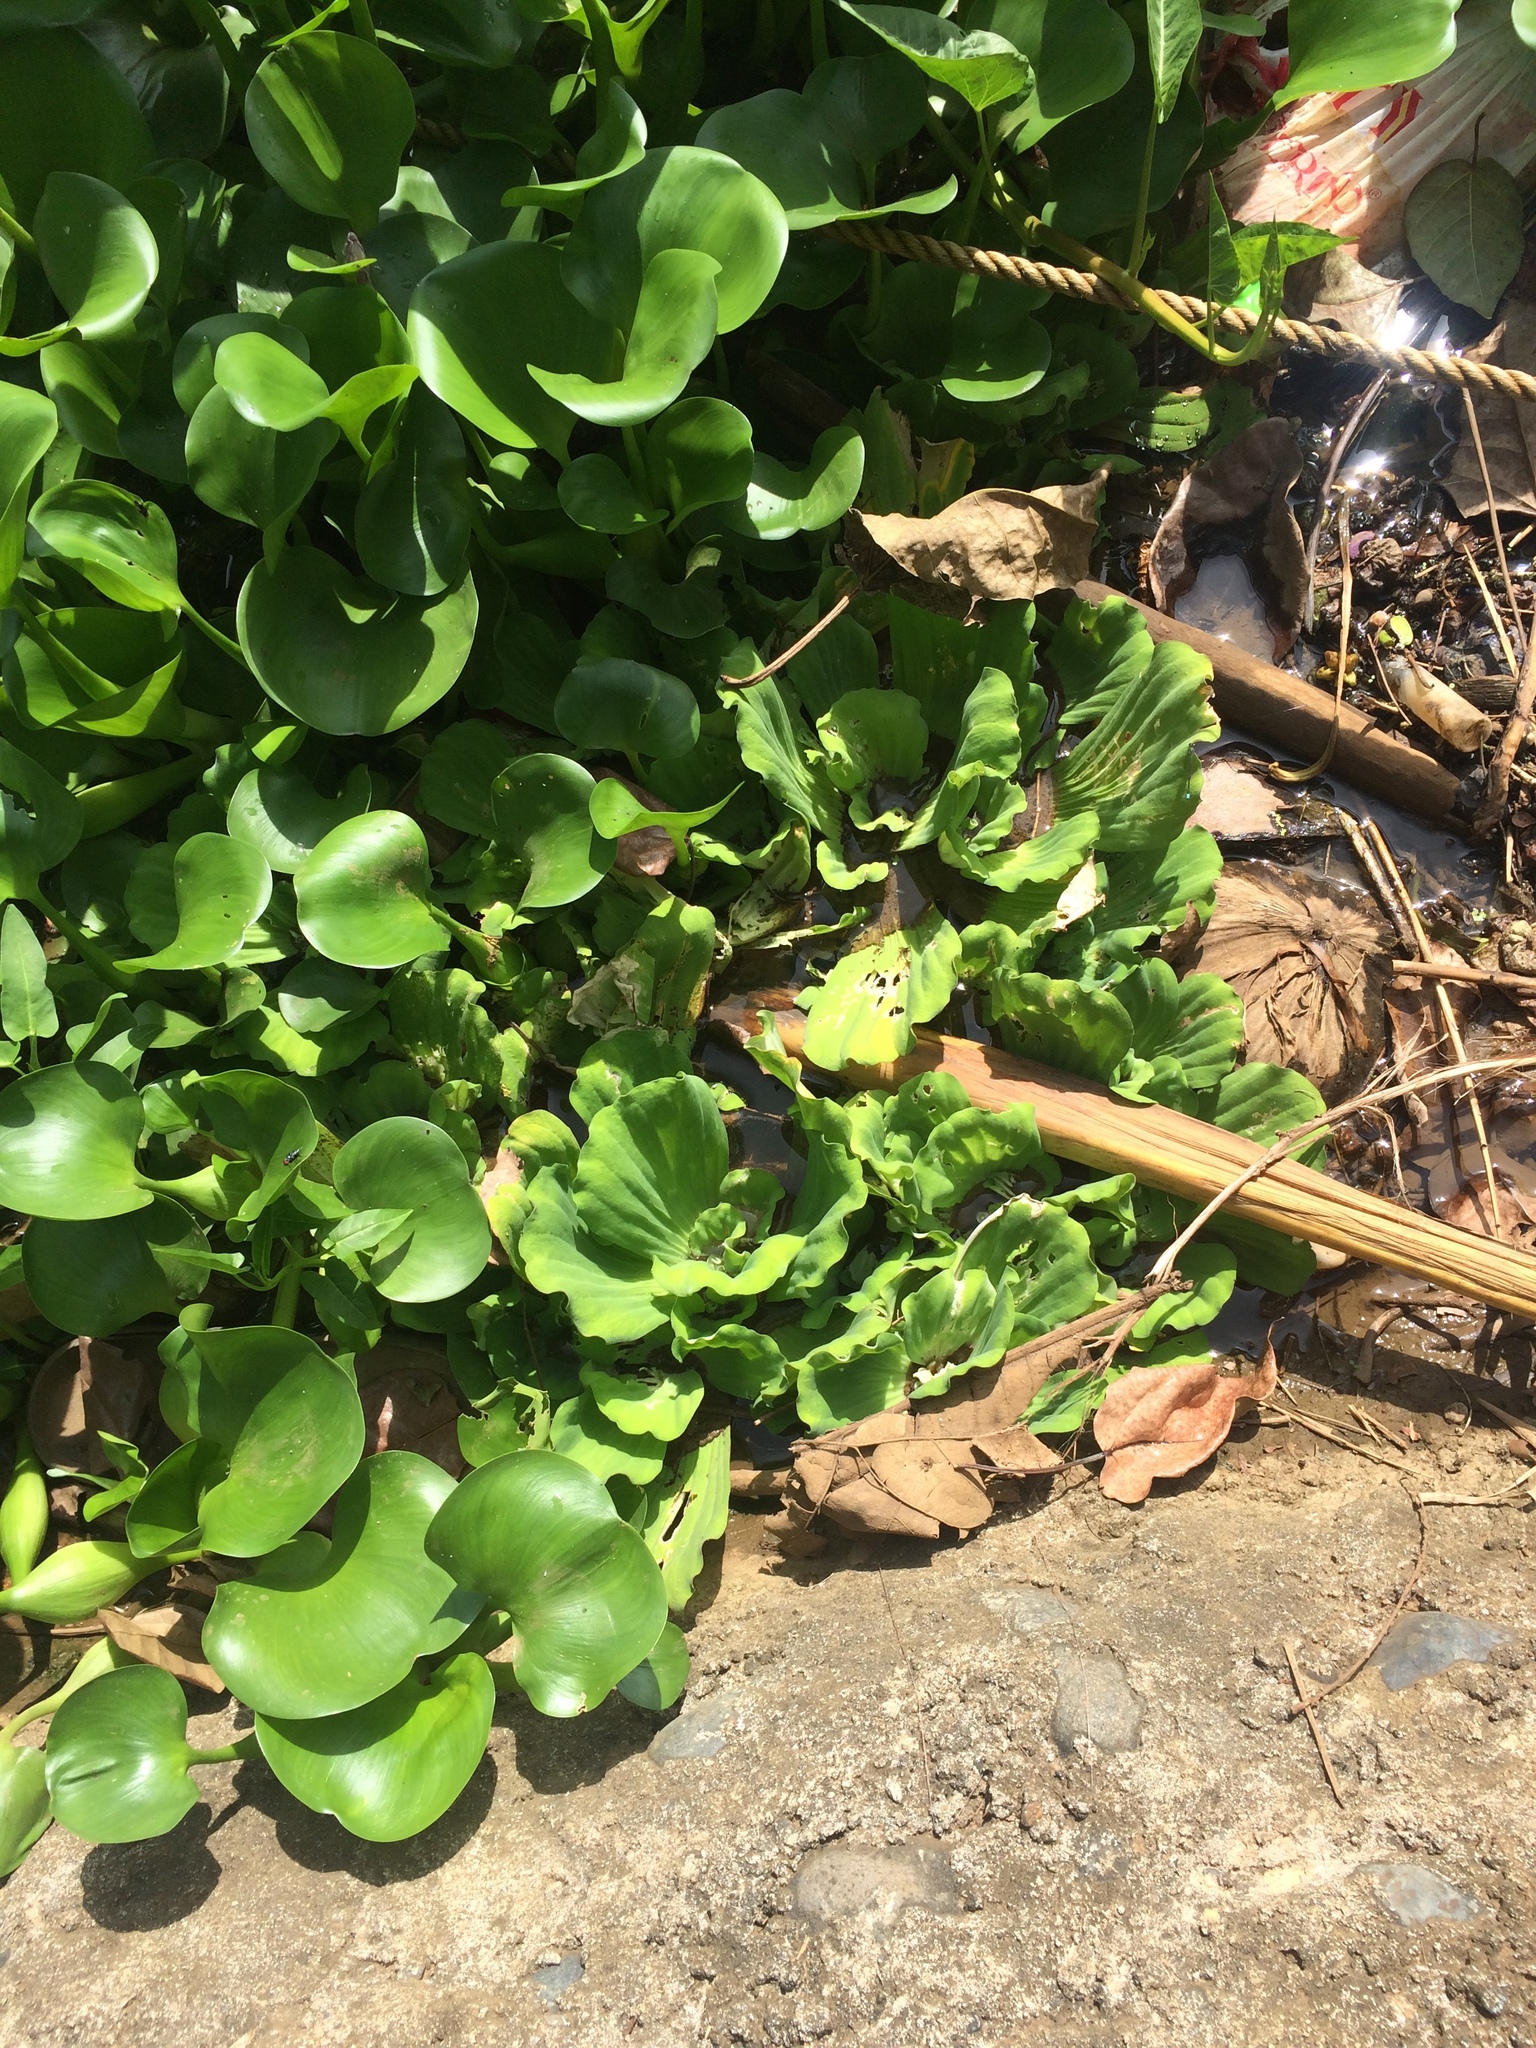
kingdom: Plantae
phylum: Tracheophyta
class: Liliopsida
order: Alismatales
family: Araceae
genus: Pistia
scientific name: Pistia stratiotes
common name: Water lettuce
